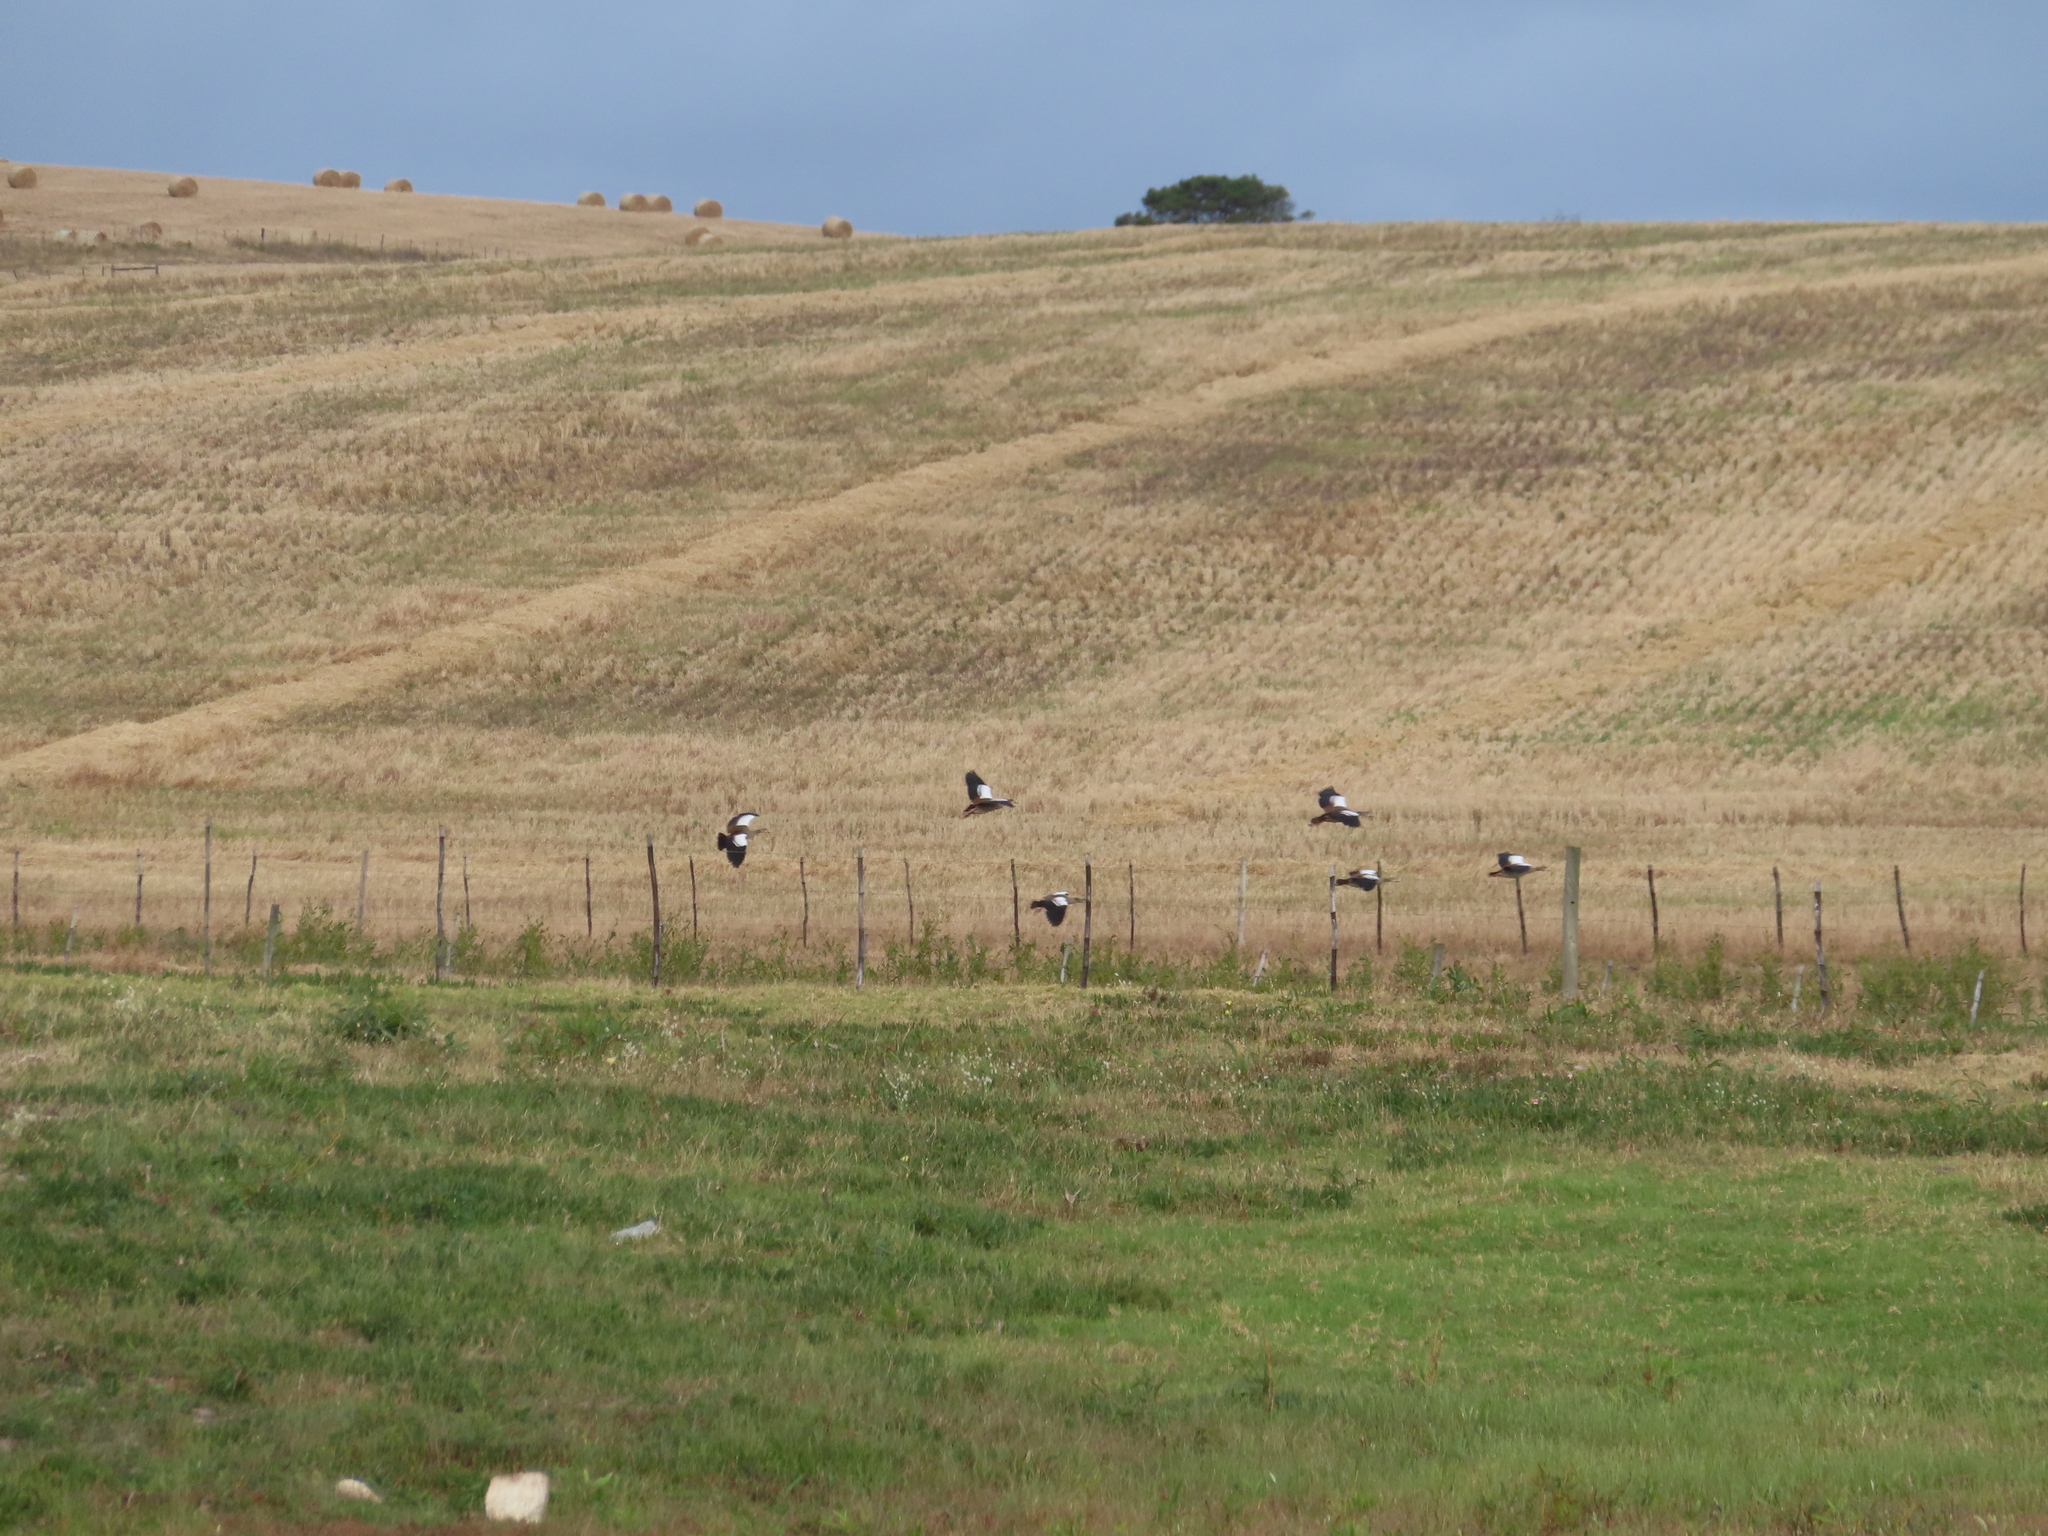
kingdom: Animalia
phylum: Chordata
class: Aves
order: Anseriformes
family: Anatidae
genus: Alopochen
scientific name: Alopochen aegyptiaca
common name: Egyptian goose
